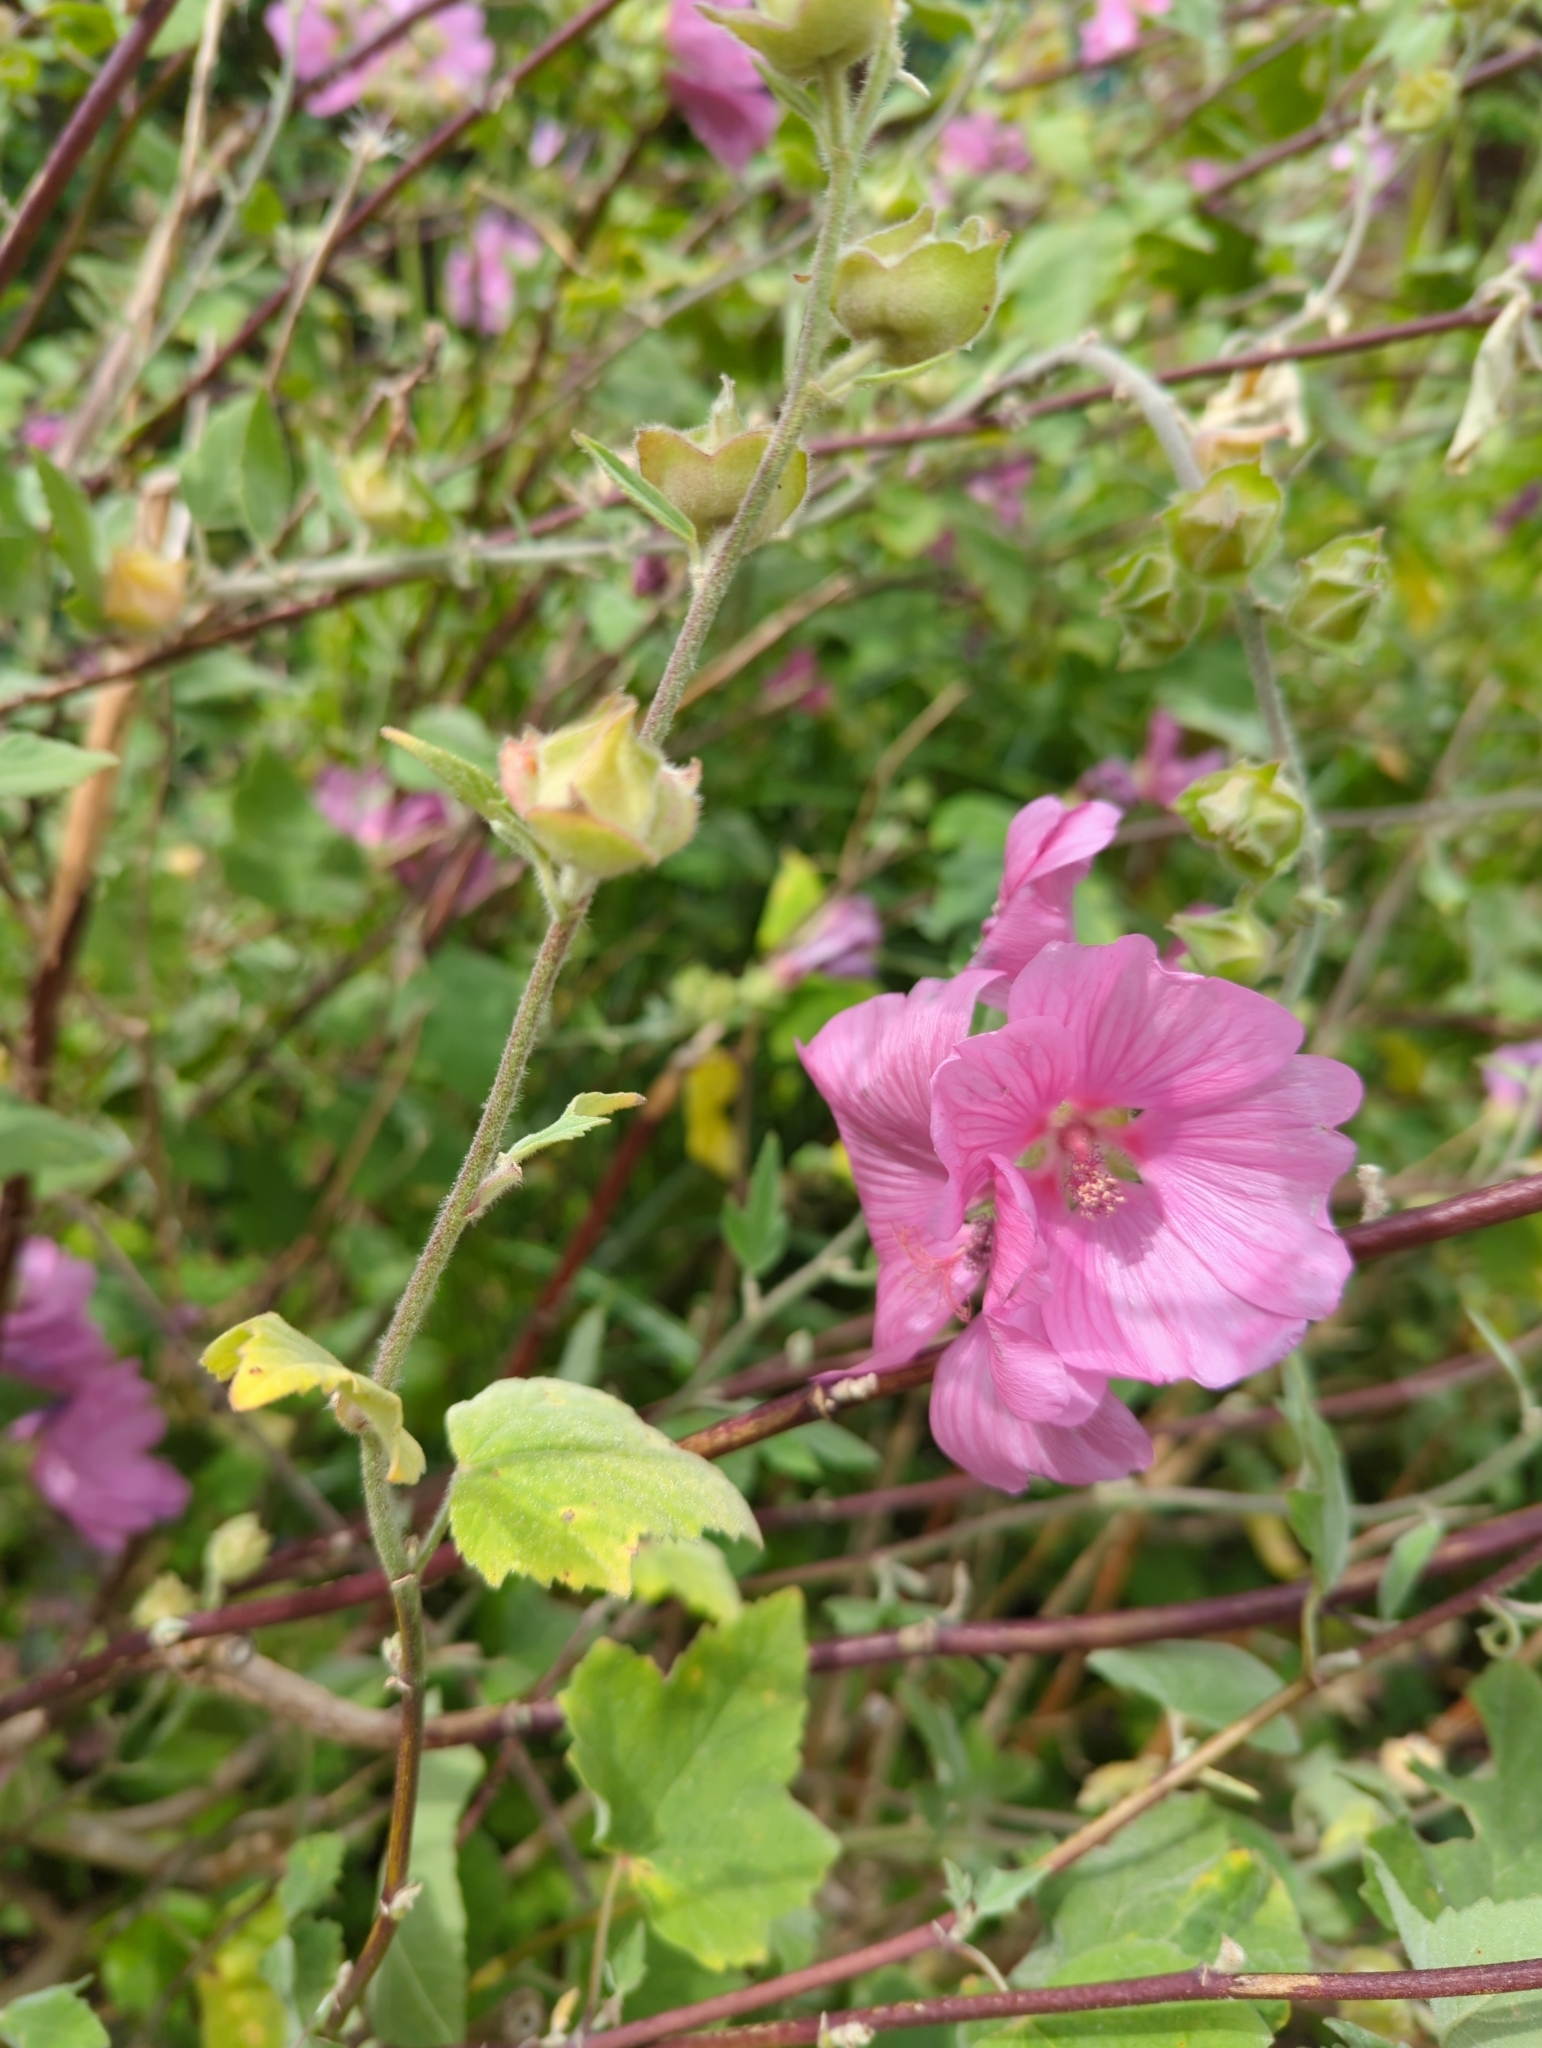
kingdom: Plantae
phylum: Tracheophyta
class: Magnoliopsida
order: Malvales
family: Malvaceae
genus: Malva
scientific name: Malva arborea
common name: Tree mallow
